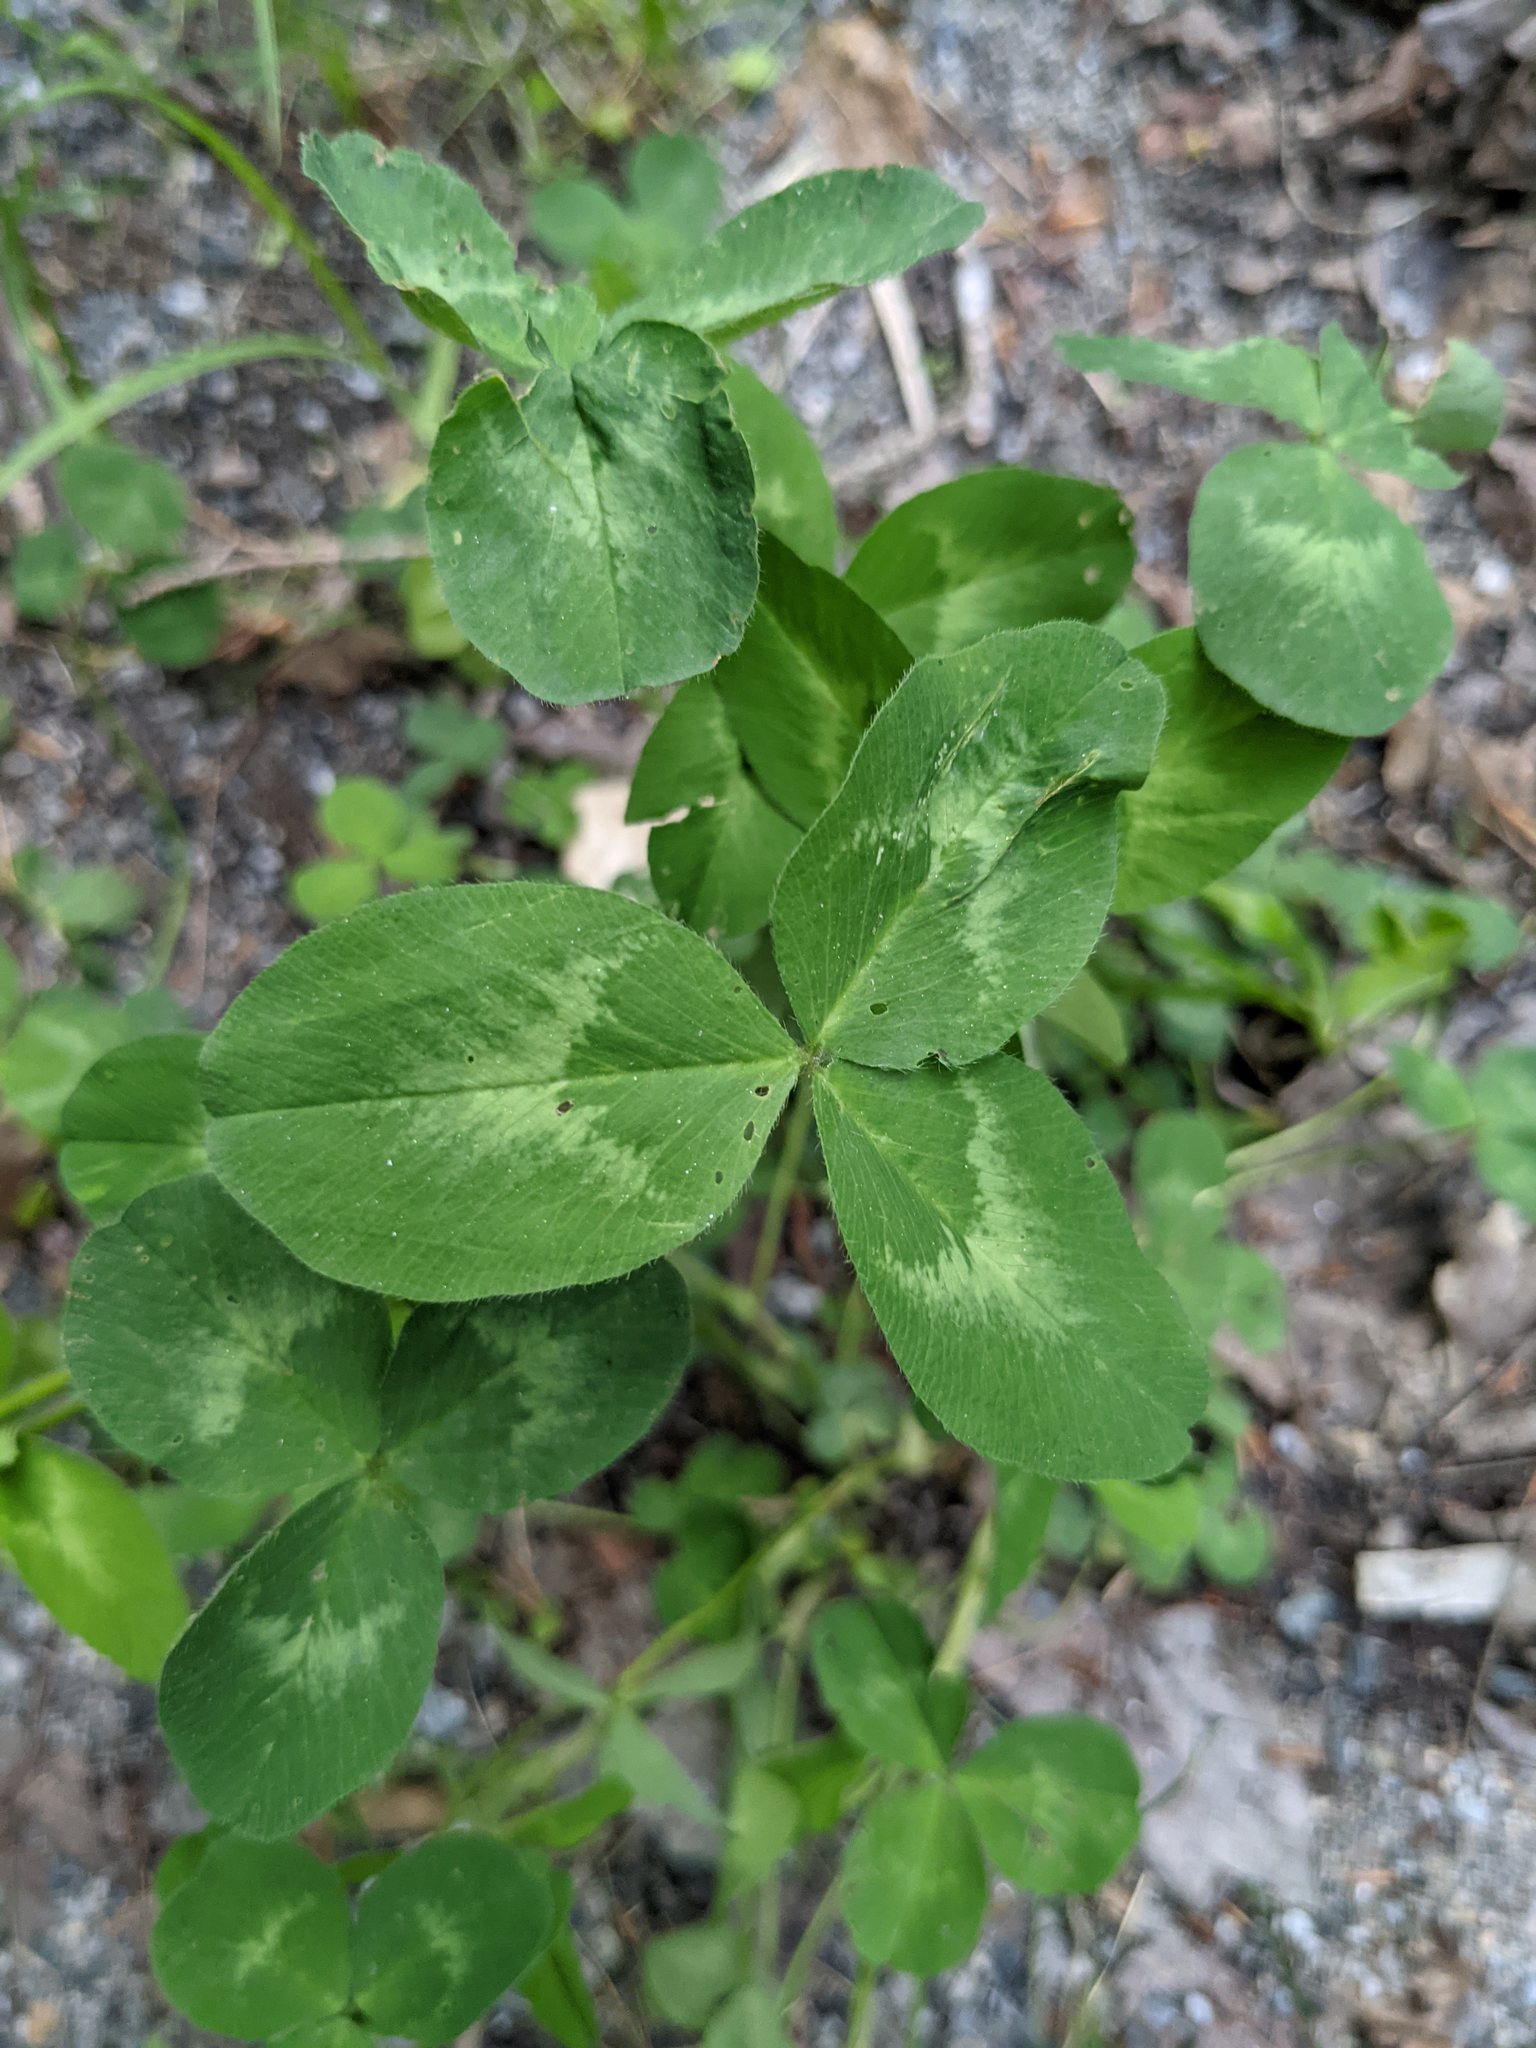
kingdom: Plantae
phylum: Tracheophyta
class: Magnoliopsida
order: Fabales
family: Fabaceae
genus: Trifolium
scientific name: Trifolium pratense
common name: Red clover
